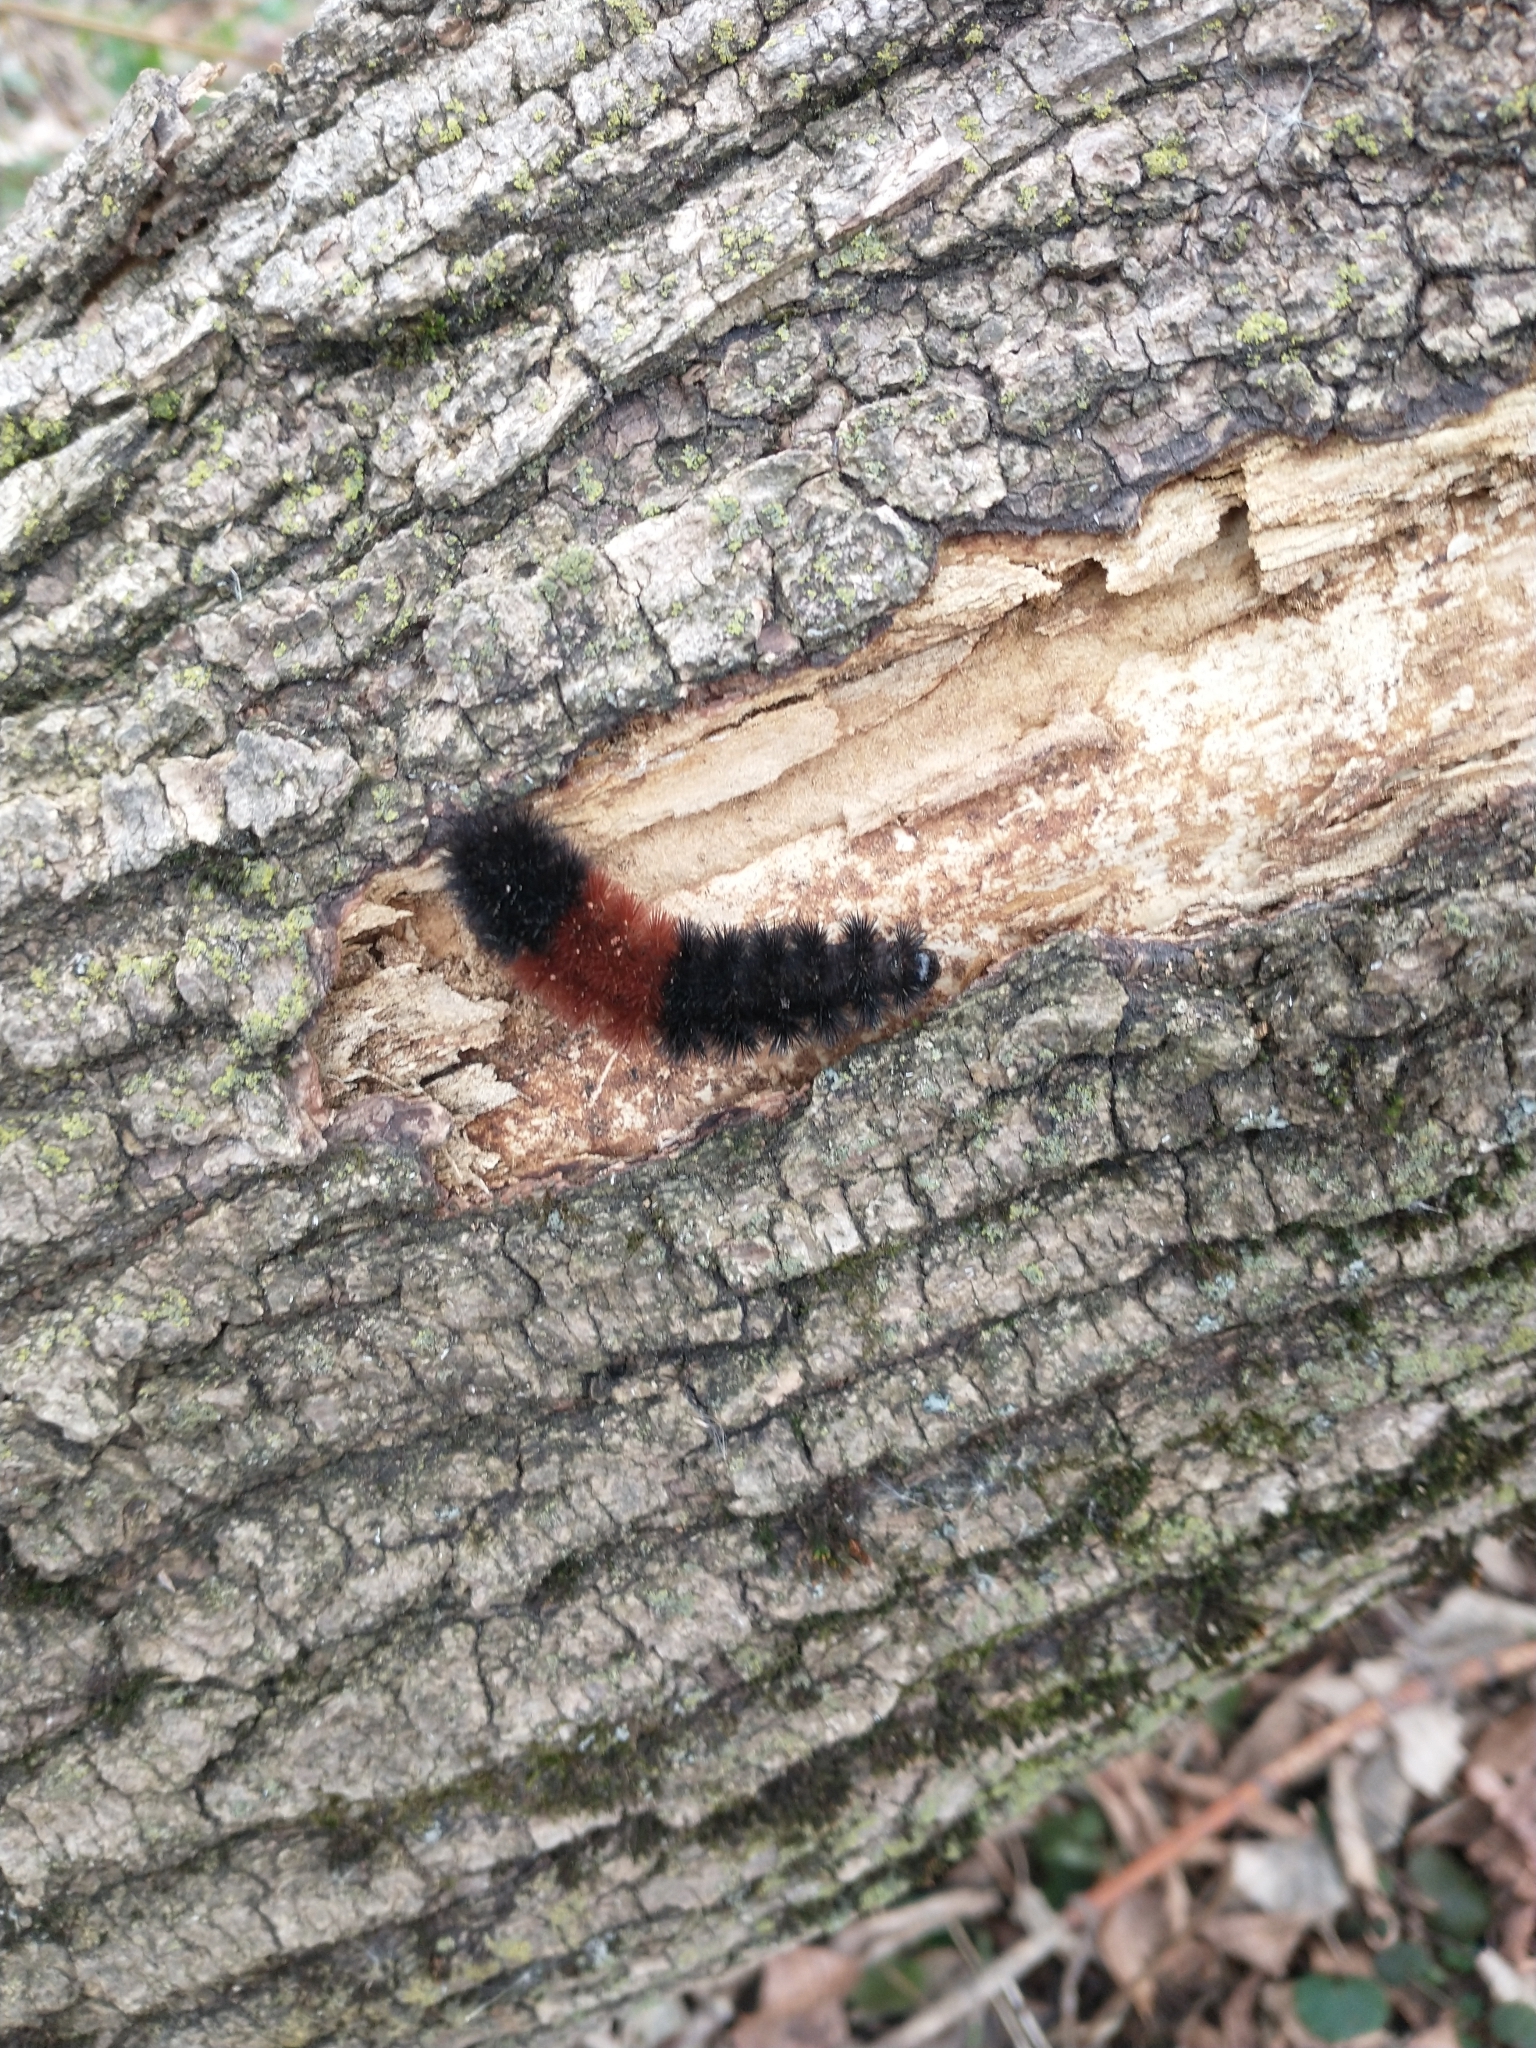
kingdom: Animalia
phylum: Arthropoda
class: Insecta
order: Lepidoptera
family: Erebidae
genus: Pyrrharctia
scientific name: Pyrrharctia isabella
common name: Isabella tiger moth
